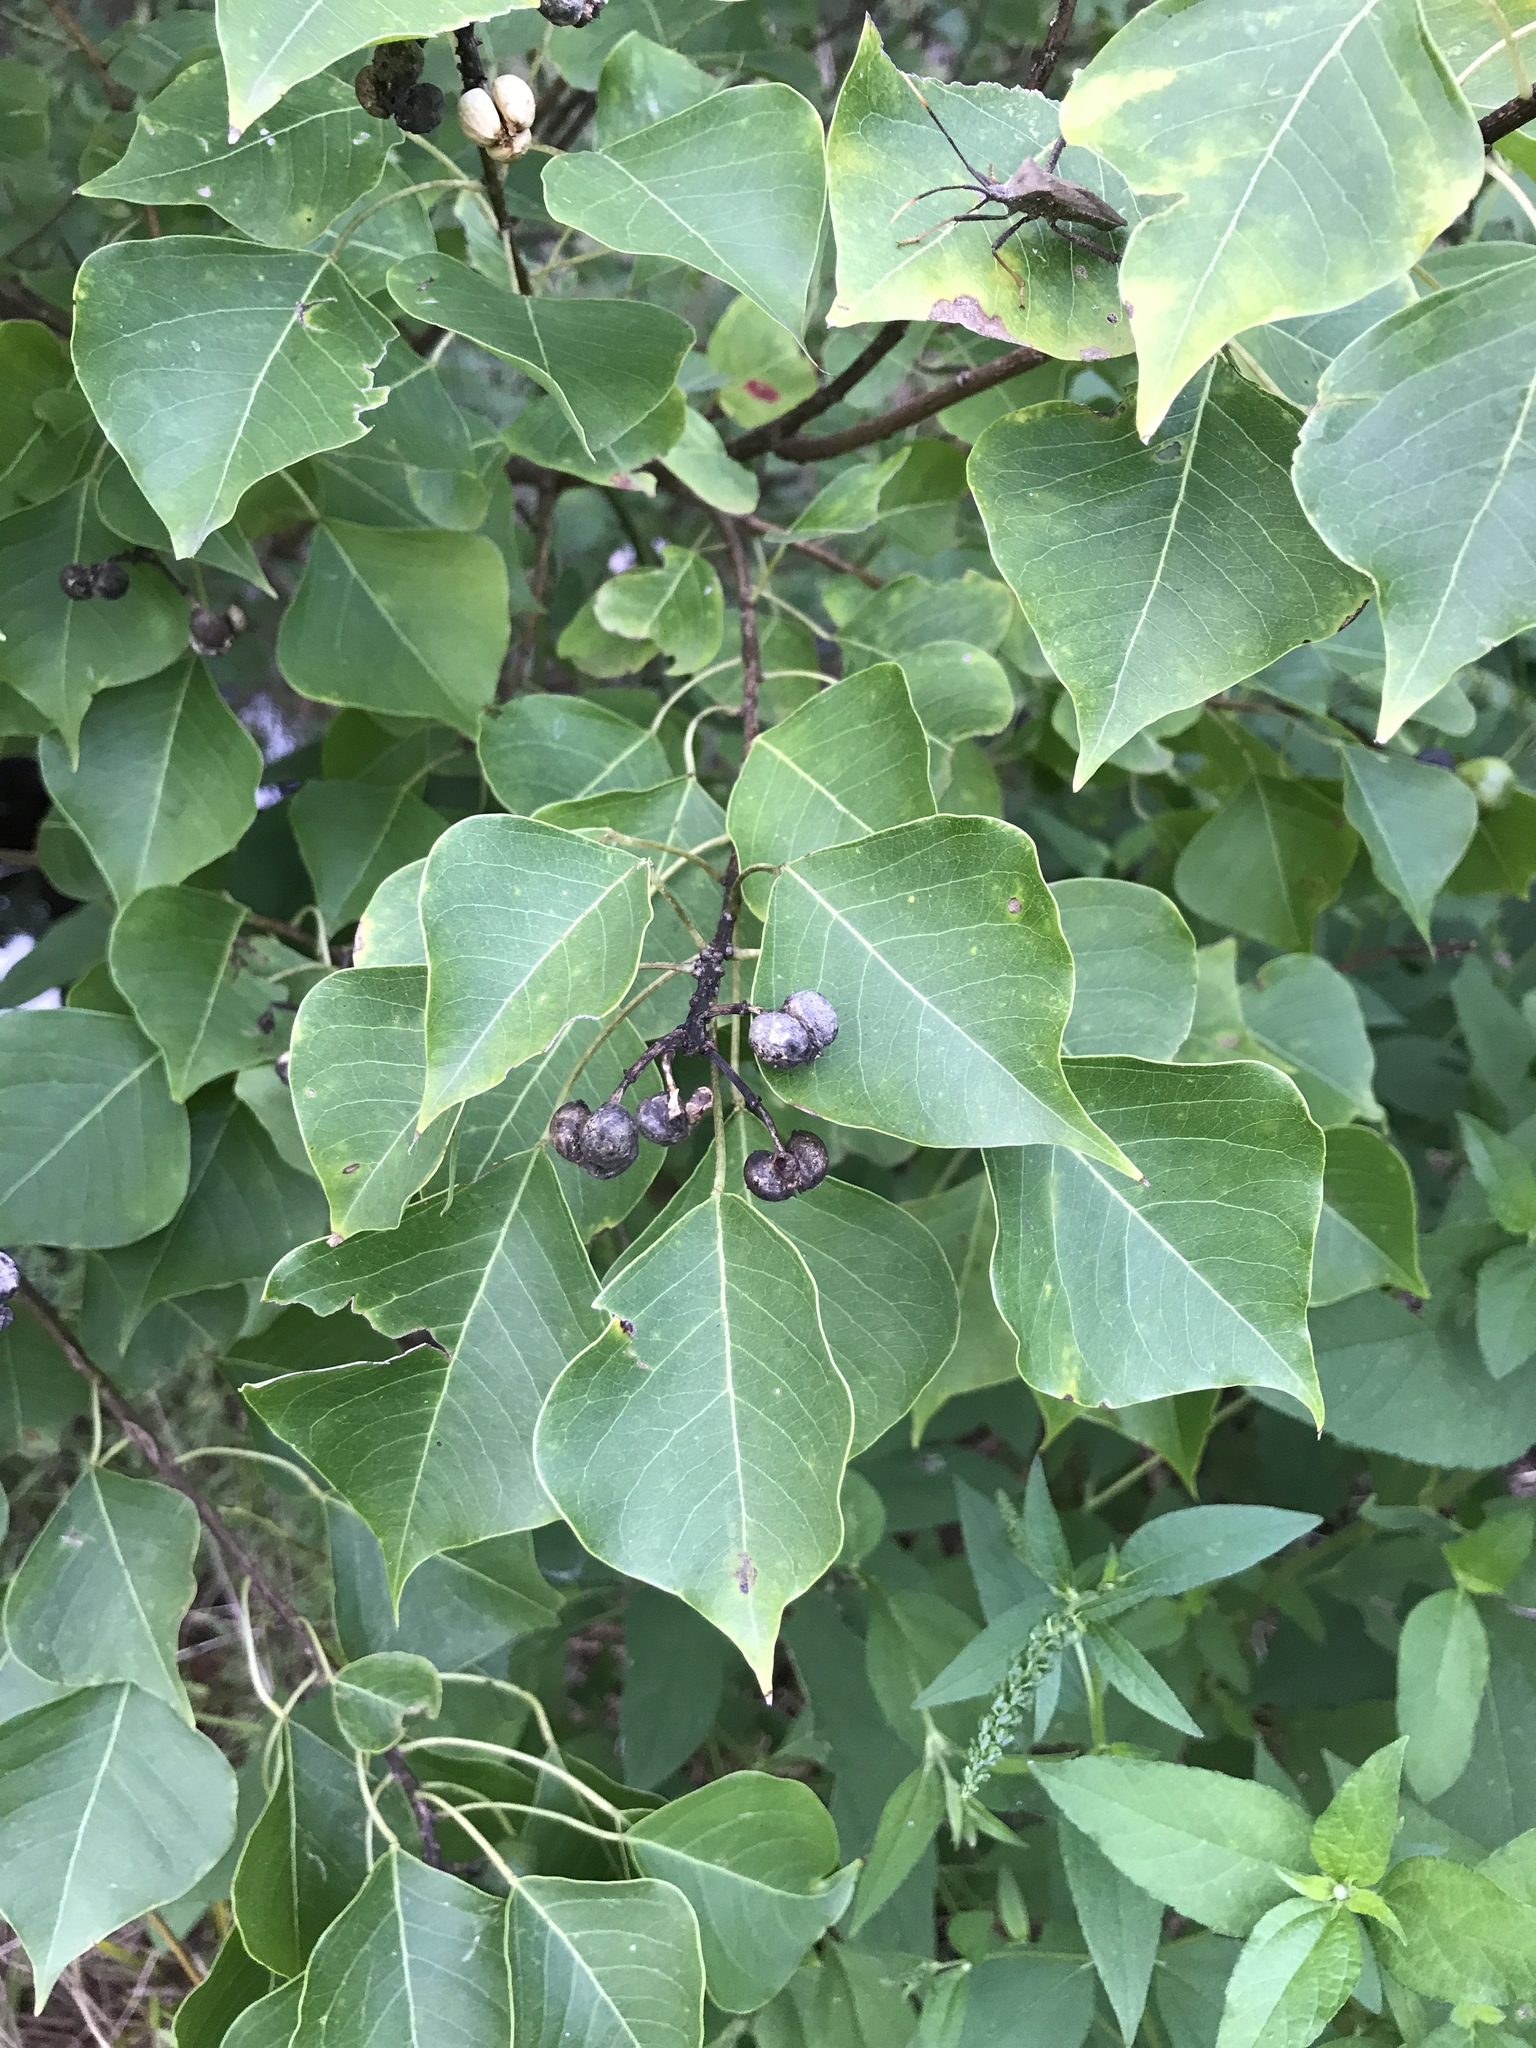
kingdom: Plantae
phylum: Tracheophyta
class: Magnoliopsida
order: Malpighiales
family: Euphorbiaceae
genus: Triadica
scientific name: Triadica sebifera
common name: Chinese tallow
